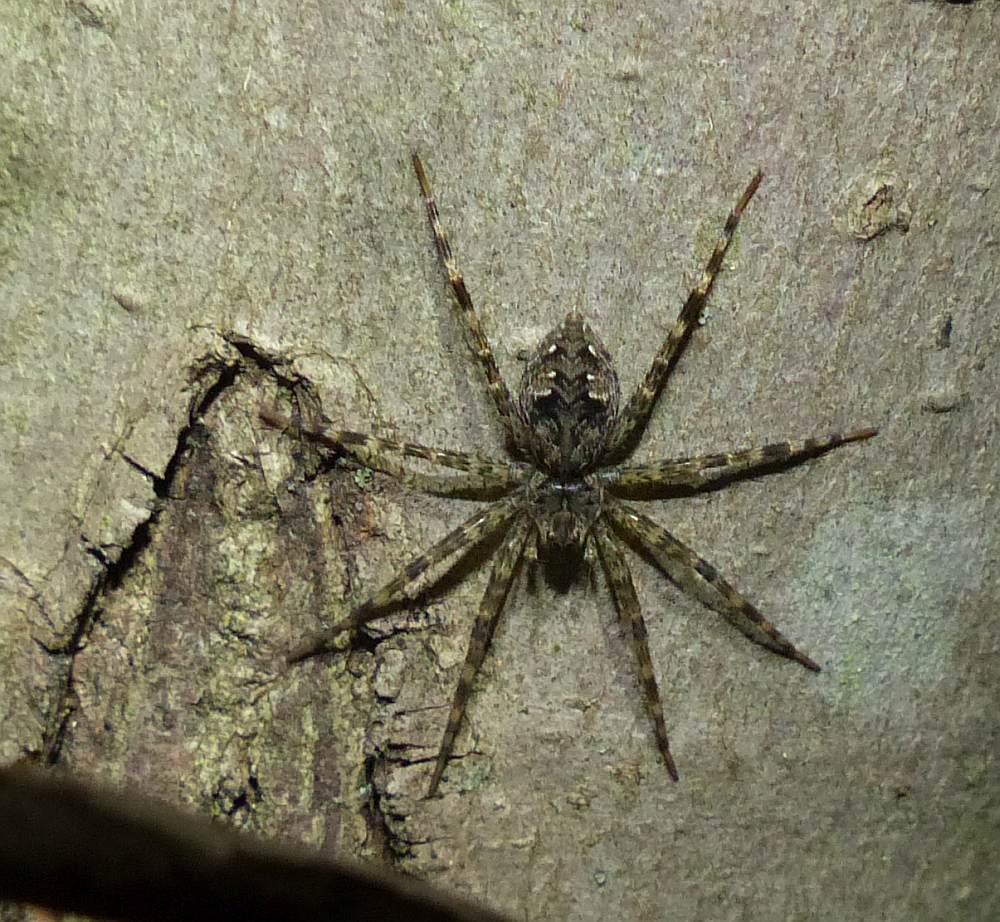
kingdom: Animalia
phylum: Arthropoda
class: Arachnida
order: Araneae
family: Pisauridae
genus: Dolomedes
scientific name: Dolomedes tenebrosus
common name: Dark fishing spider
